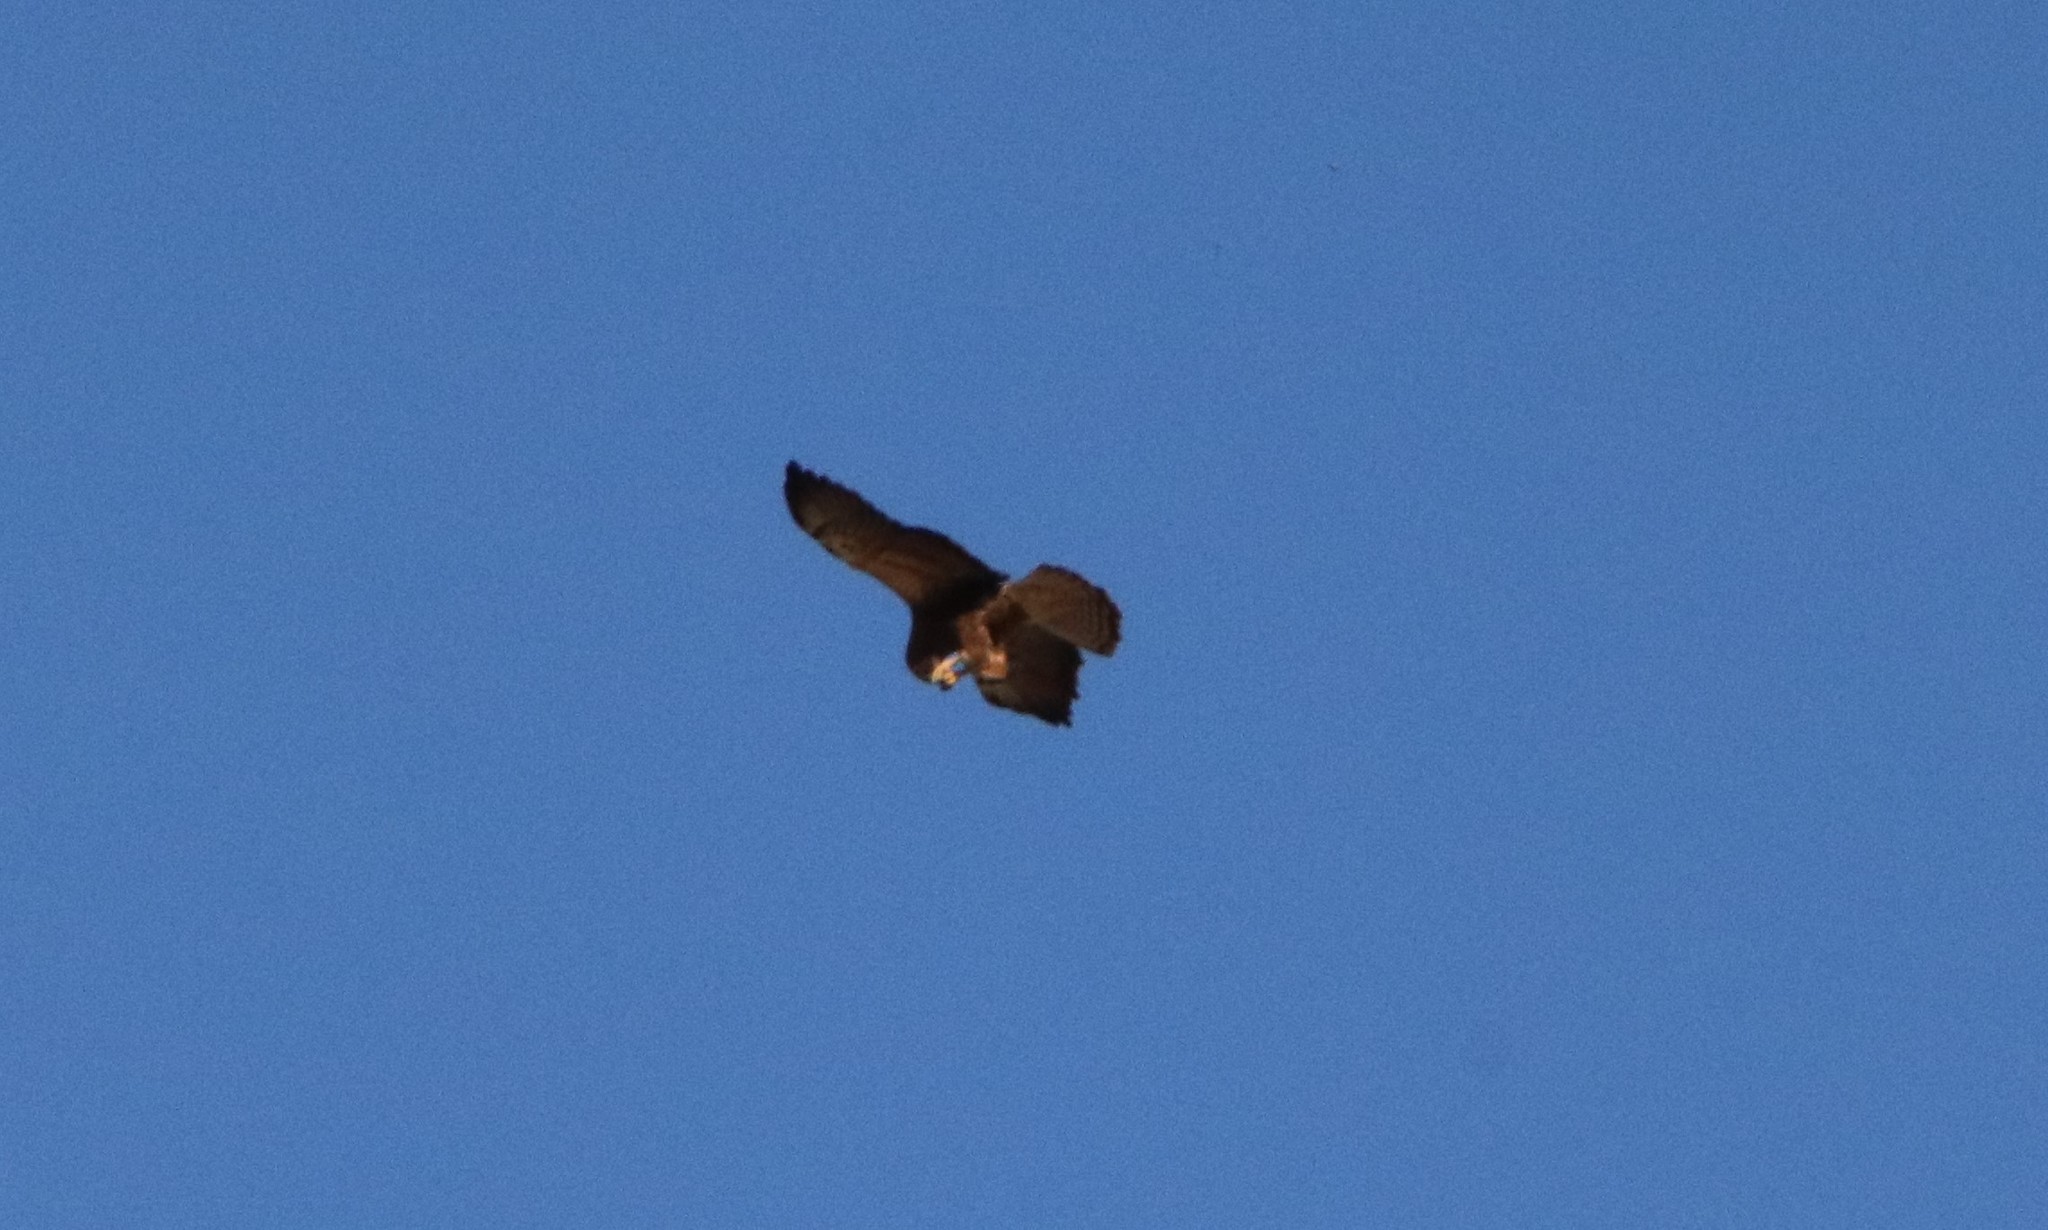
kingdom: Animalia
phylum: Chordata
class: Aves
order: Accipitriformes
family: Accipitridae
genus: Buteo
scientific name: Buteo swainsoni
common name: Swainson's hawk
